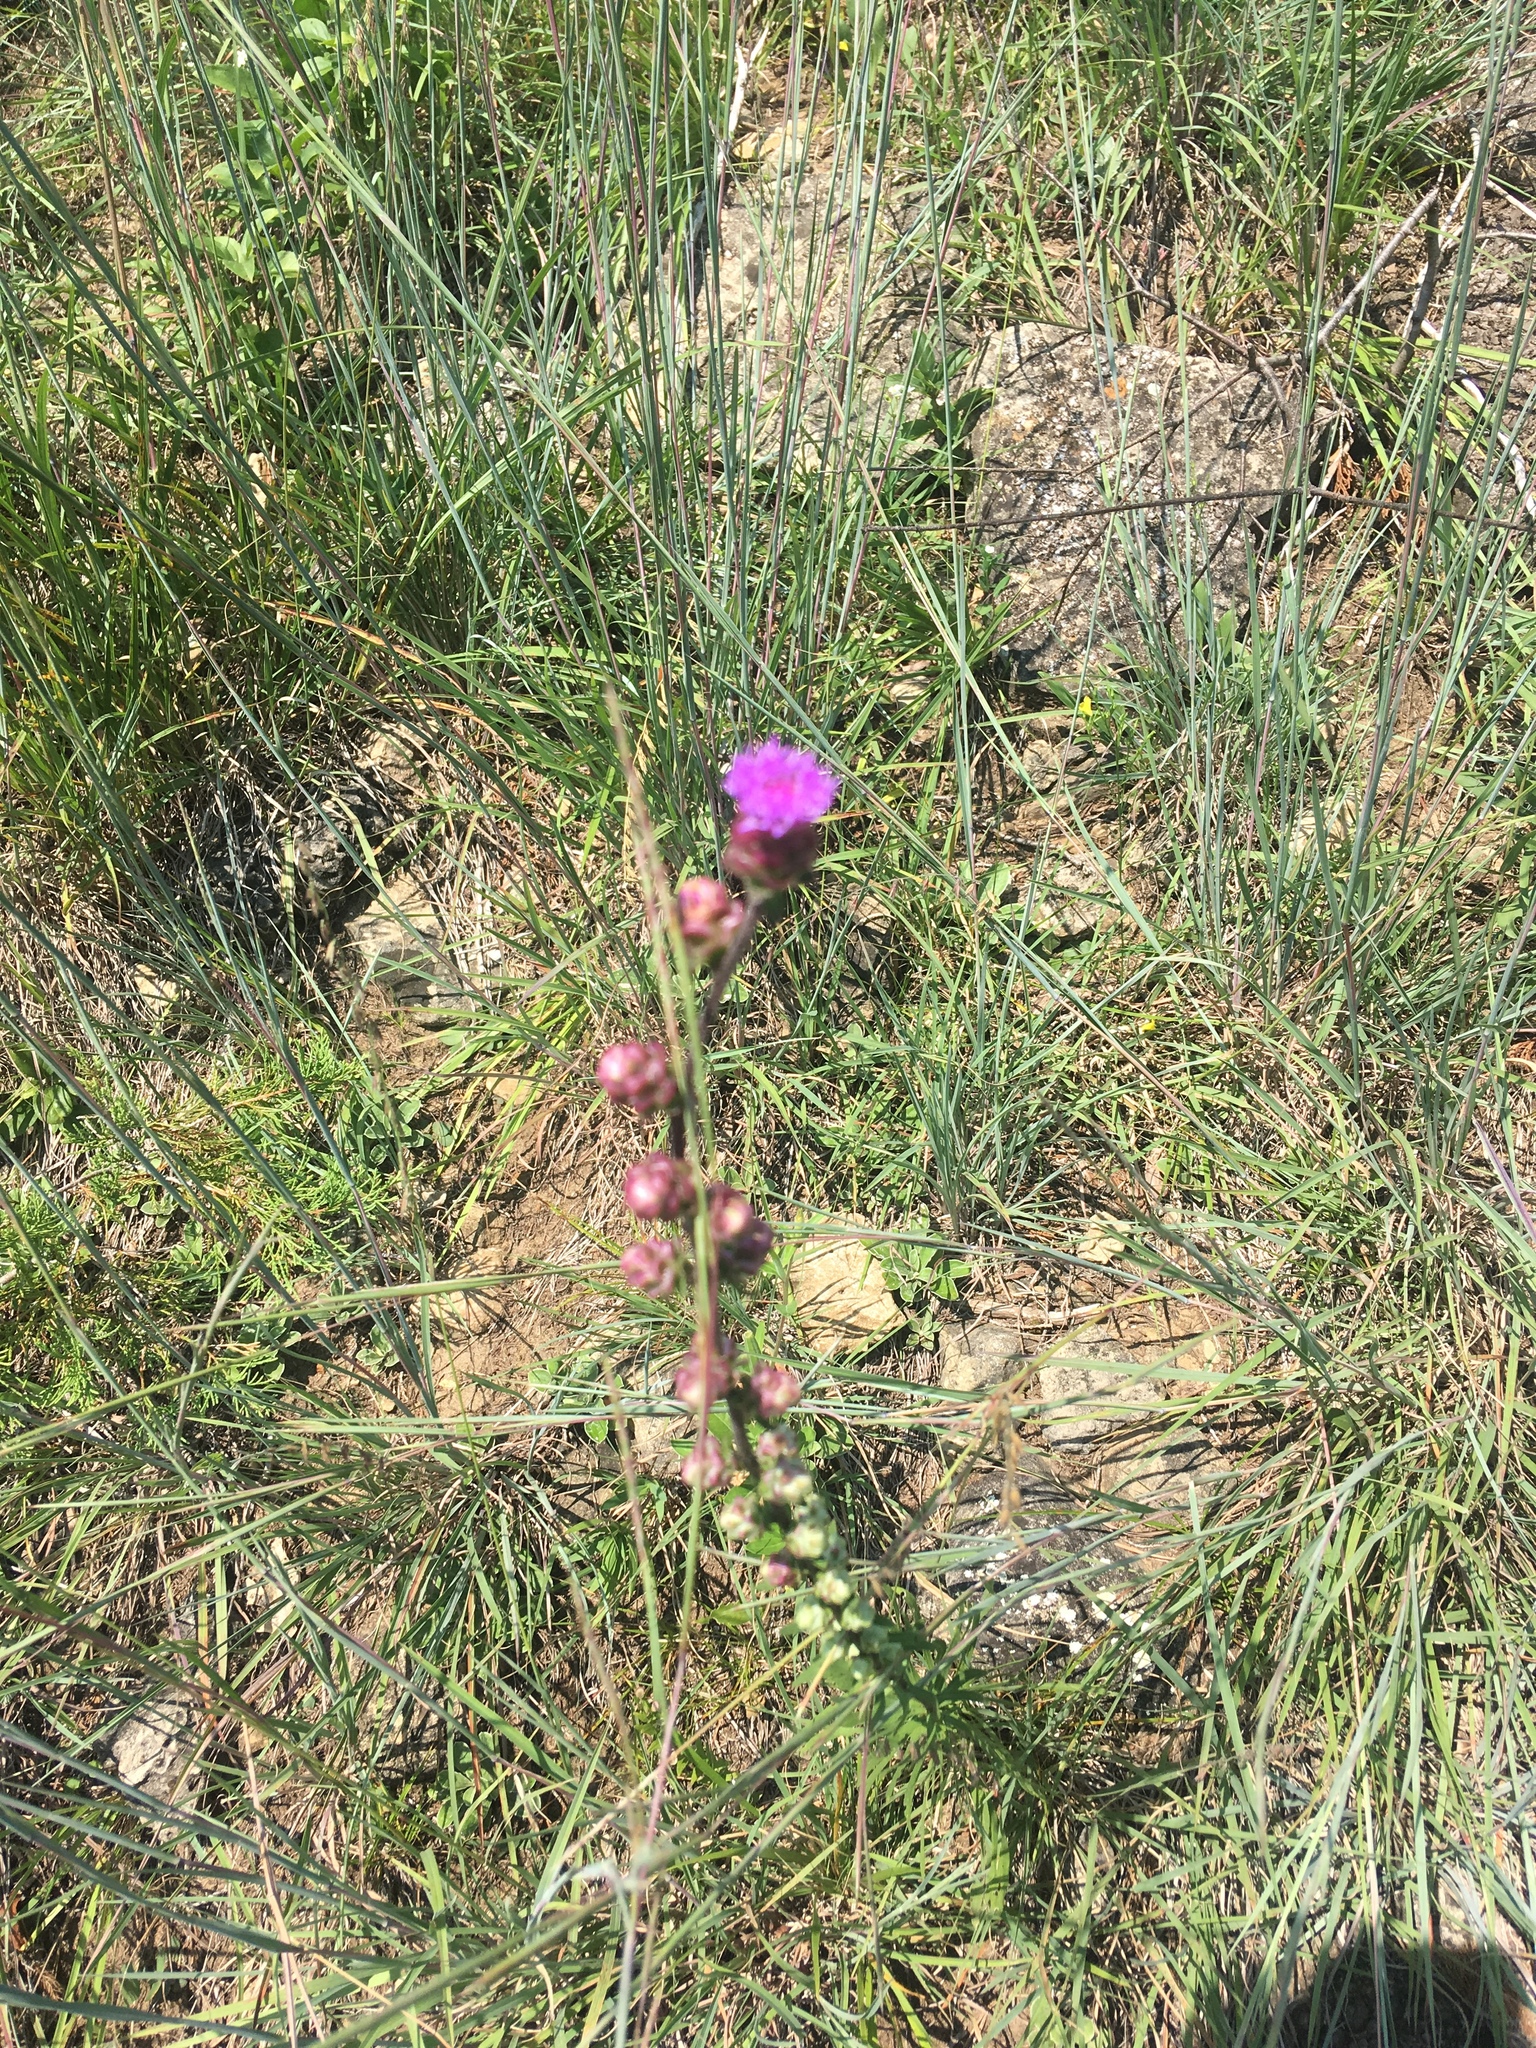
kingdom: Plantae
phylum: Tracheophyta
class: Magnoliopsida
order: Asterales
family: Asteraceae
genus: Liatris
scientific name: Liatris aspera
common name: Lacerate blazing-star
